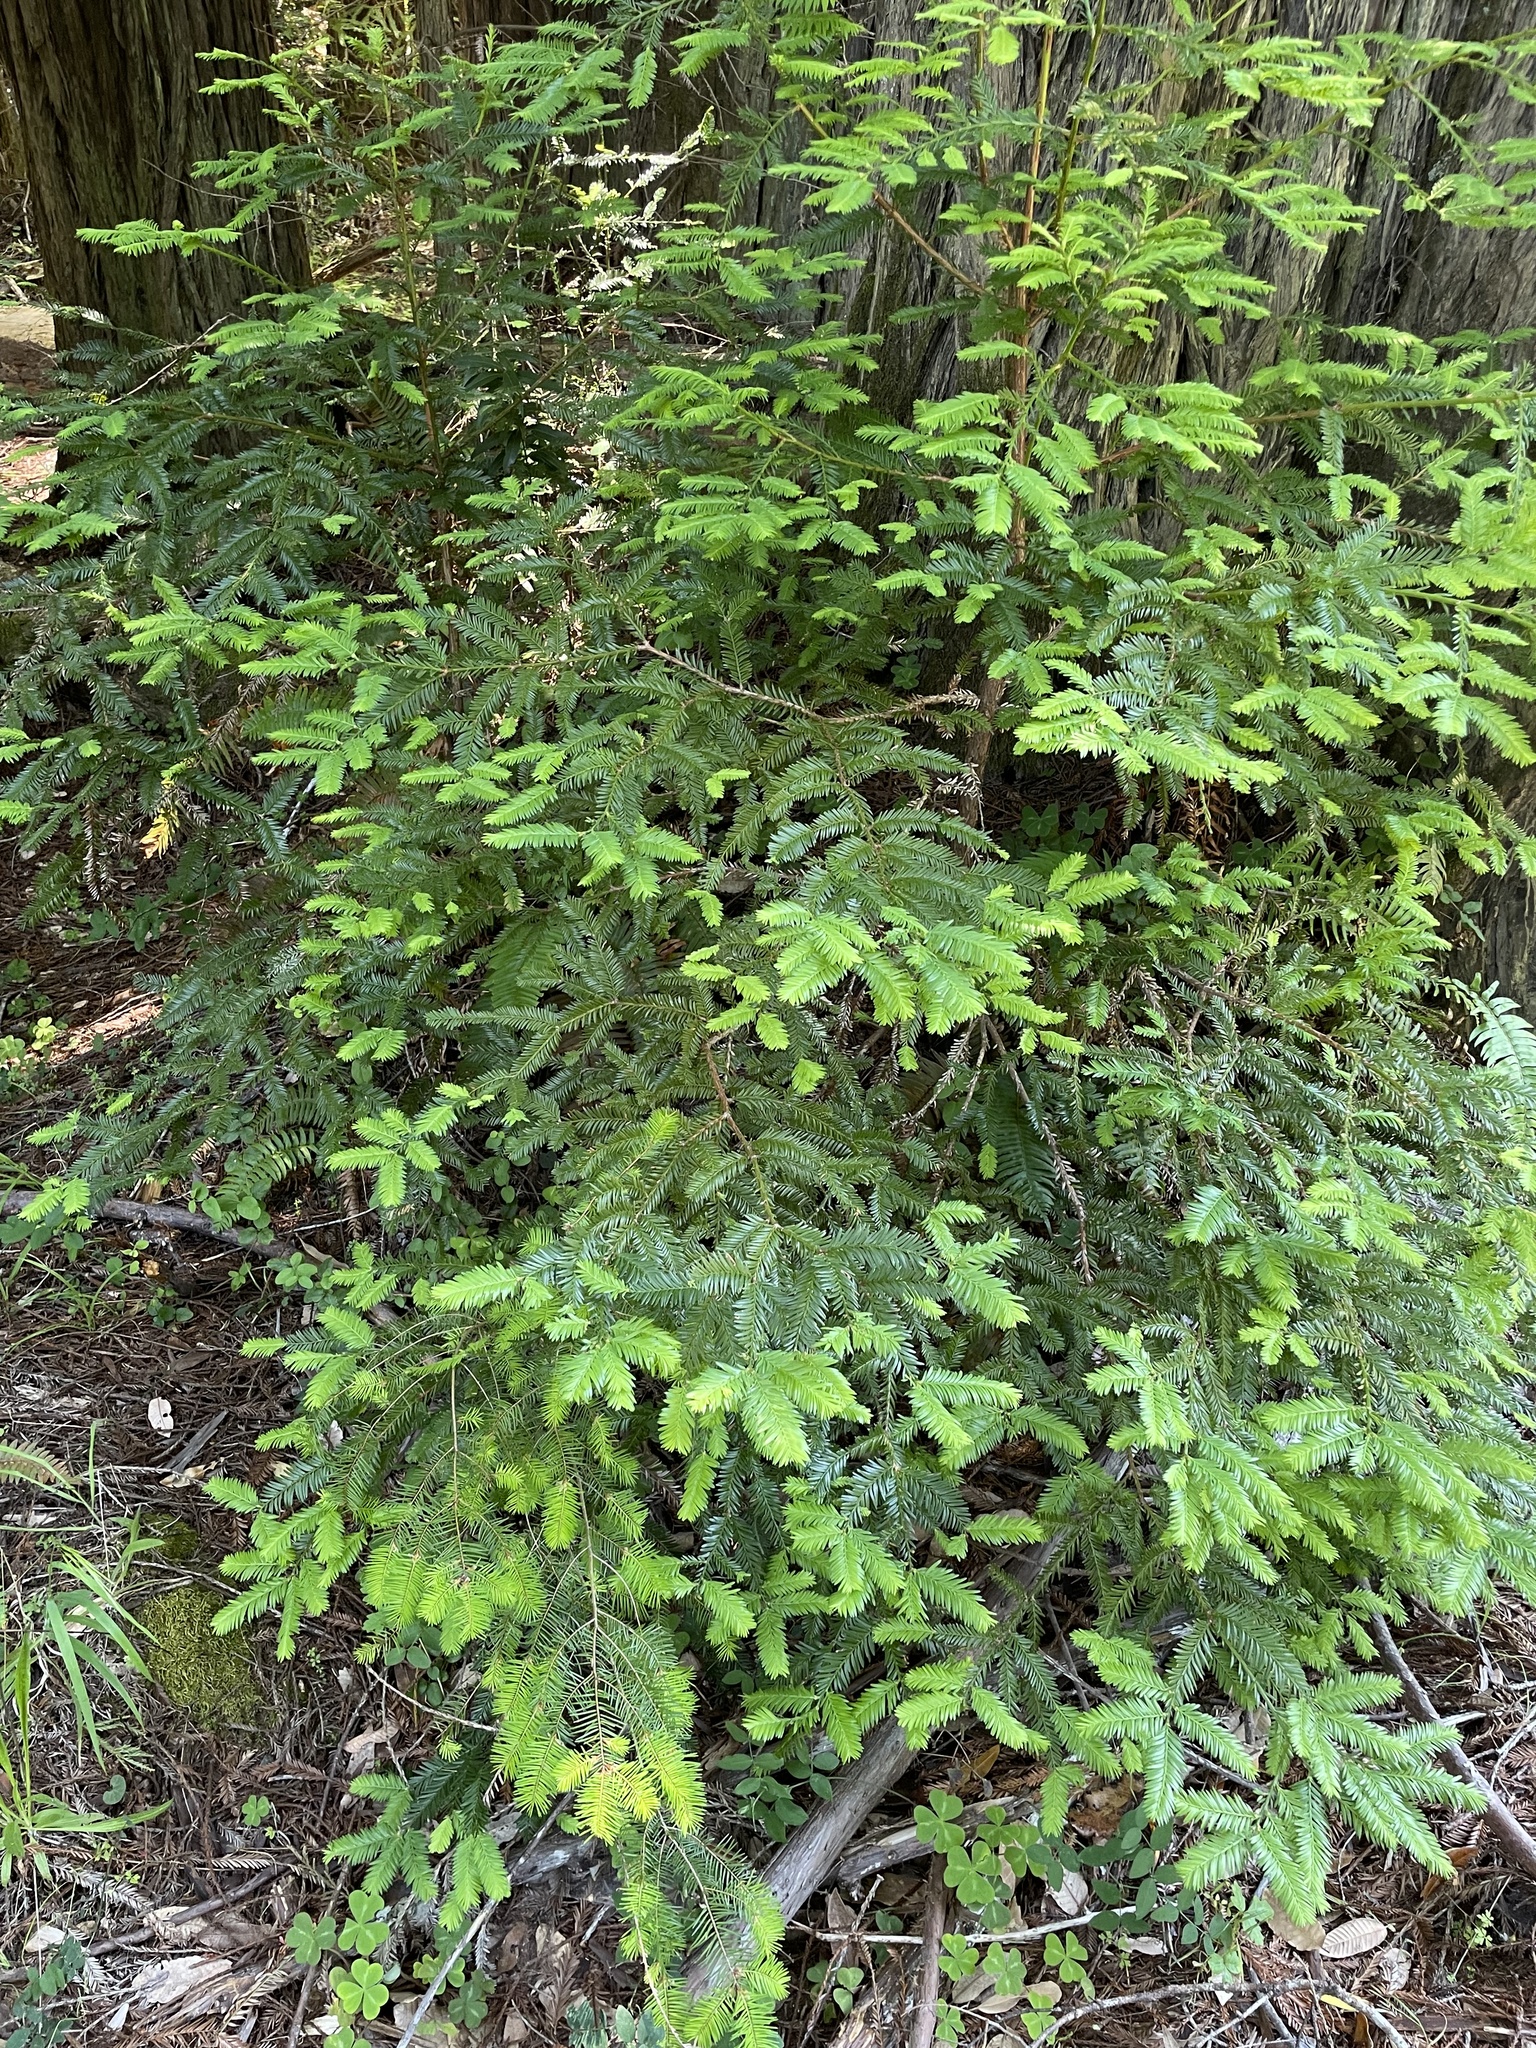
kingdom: Plantae
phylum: Tracheophyta
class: Pinopsida
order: Pinales
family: Cupressaceae
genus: Sequoia
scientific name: Sequoia sempervirens
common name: Coast redwood
